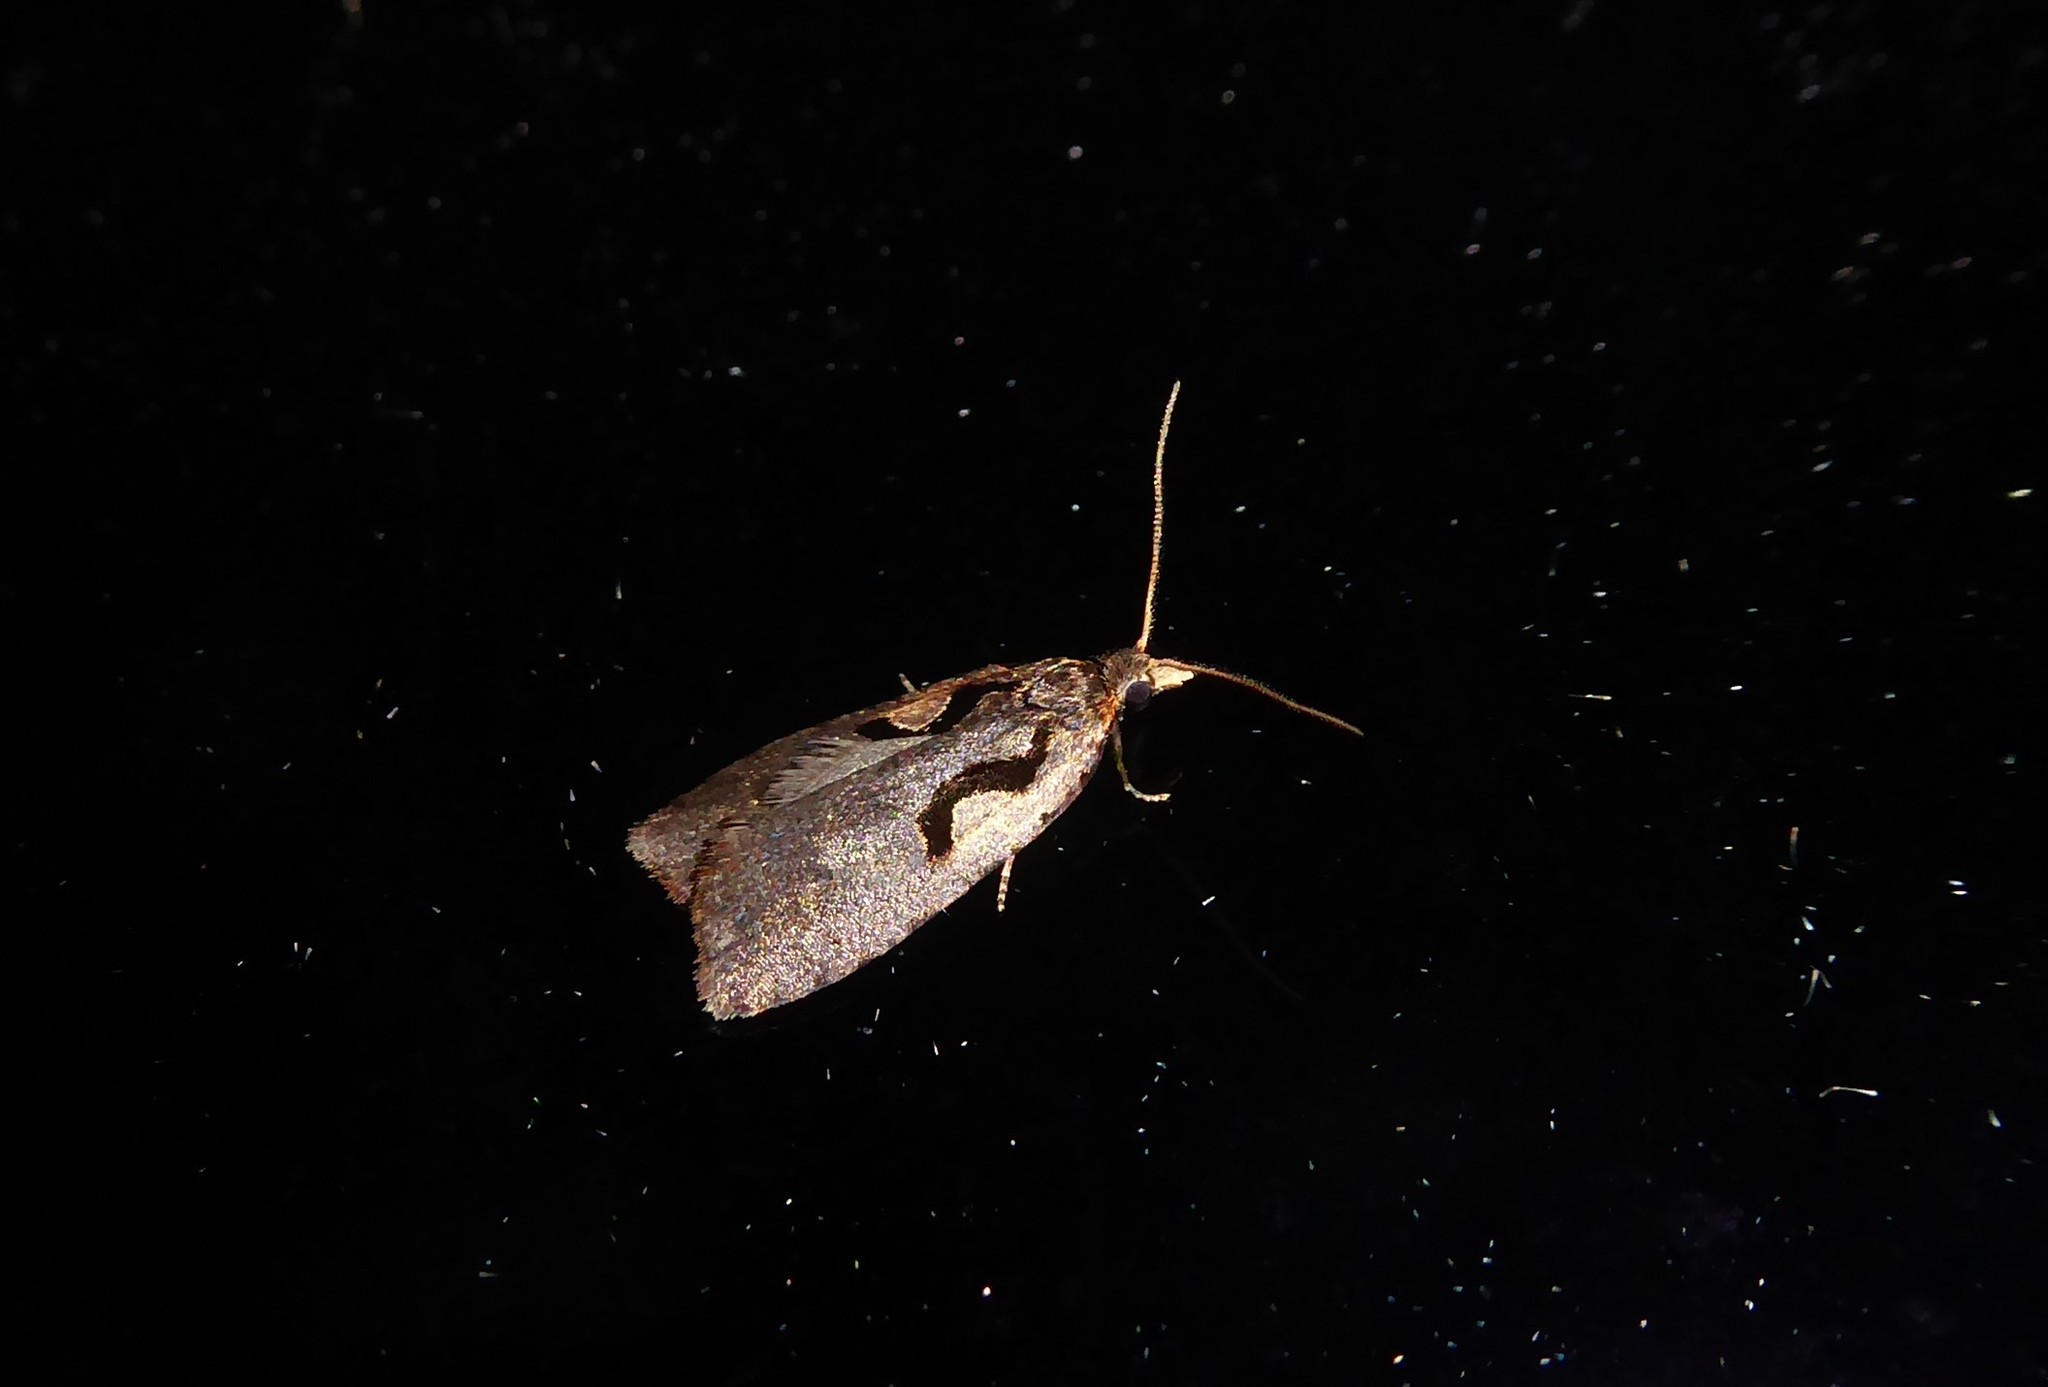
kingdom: Animalia
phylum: Arthropoda
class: Insecta
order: Lepidoptera
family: Tortricidae
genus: Cnephasia
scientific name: Cnephasia jactatana
